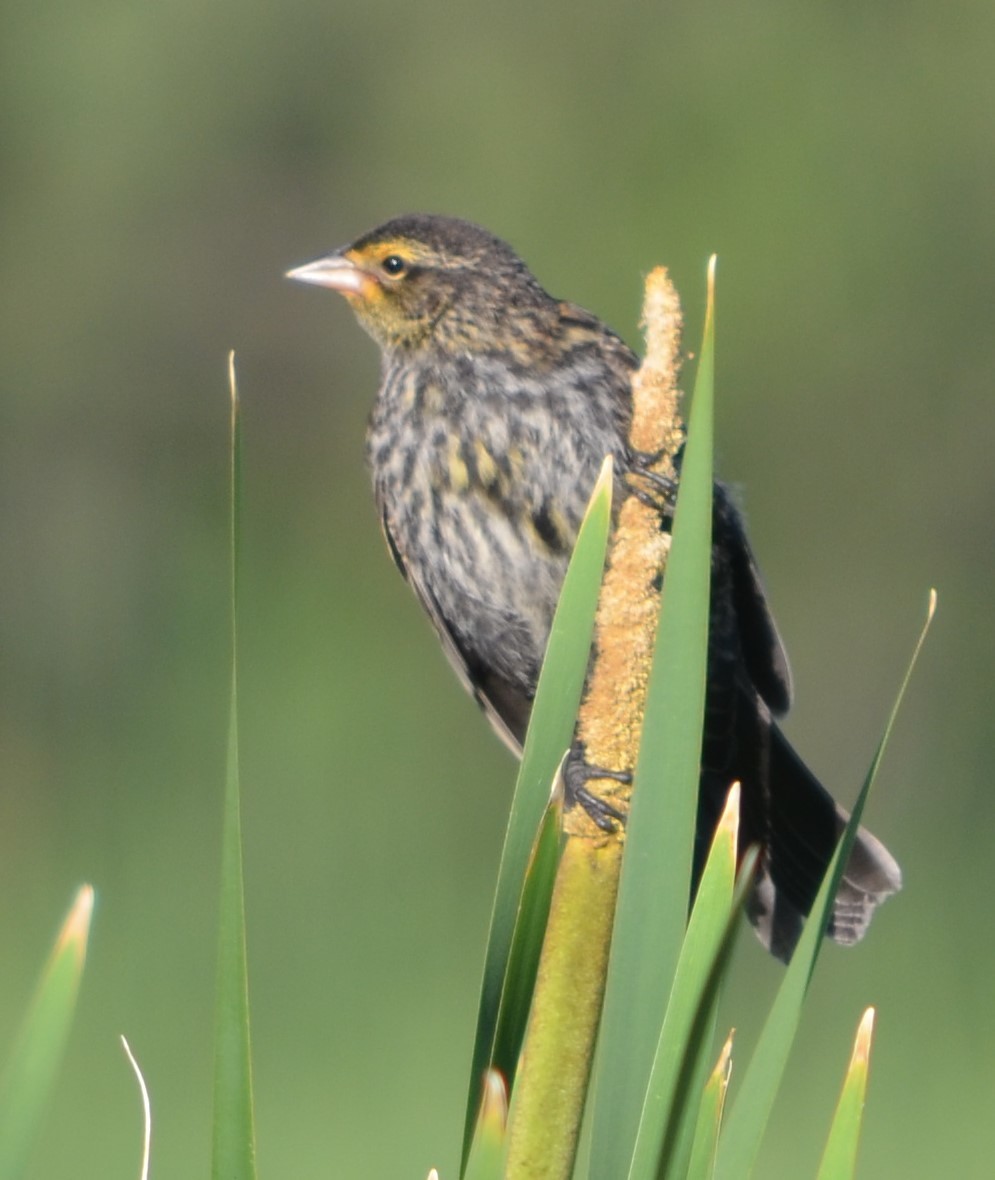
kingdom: Animalia
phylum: Chordata
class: Aves
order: Passeriformes
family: Icteridae
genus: Agelaius
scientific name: Agelaius phoeniceus
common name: Red-winged blackbird
